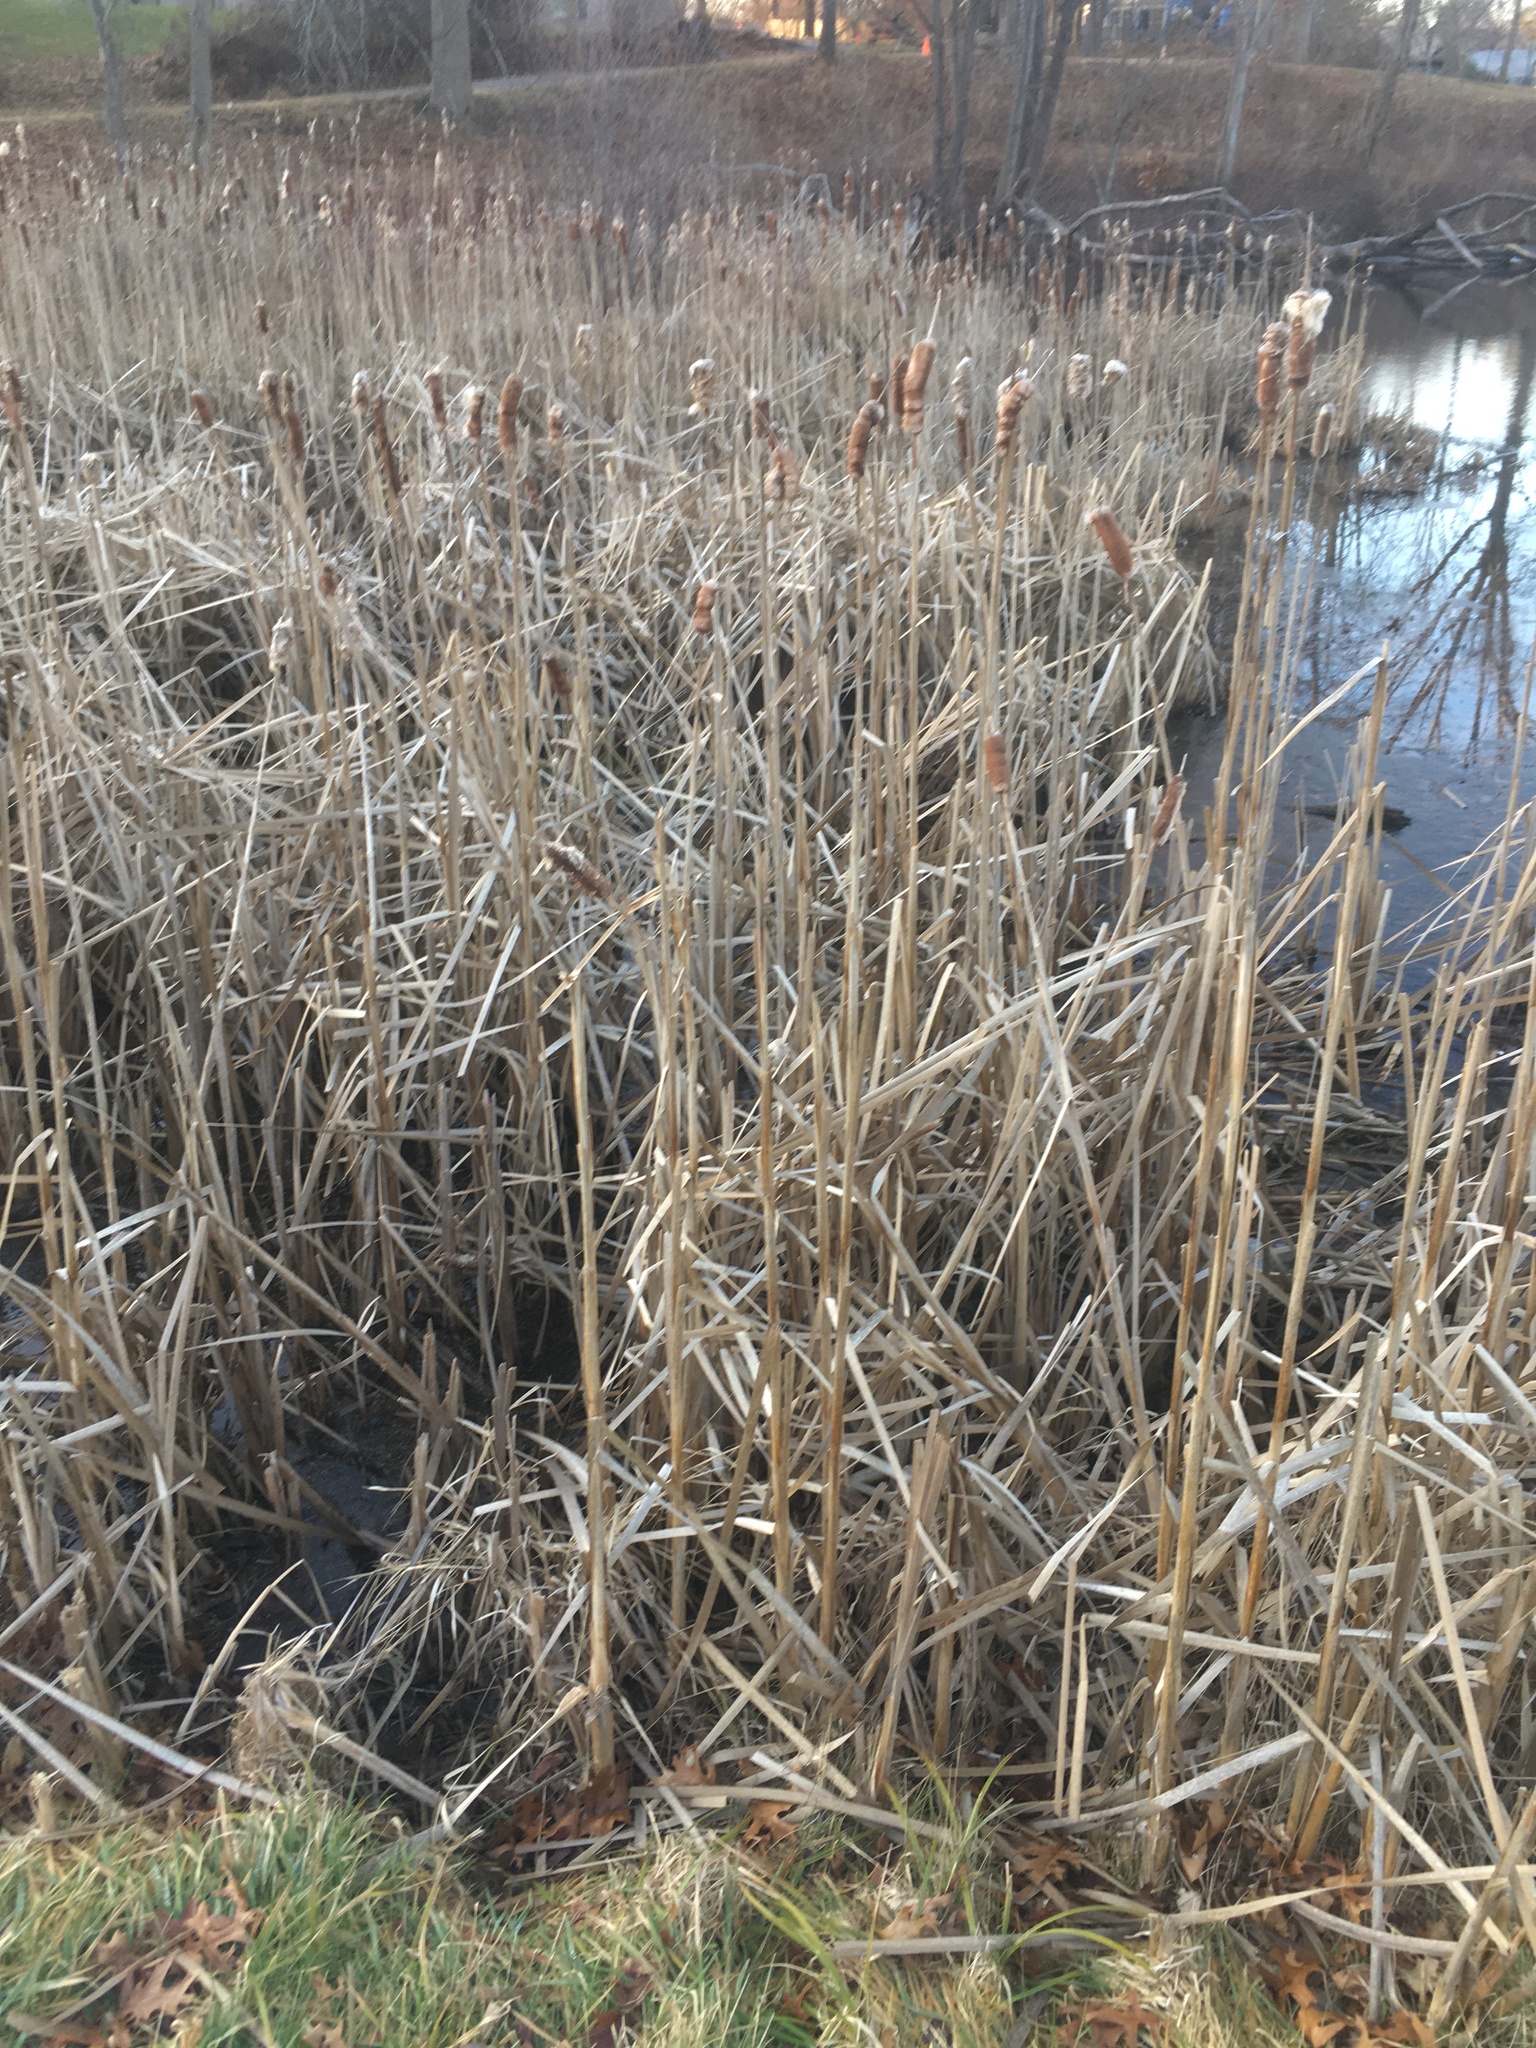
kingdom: Plantae
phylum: Tracheophyta
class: Liliopsida
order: Poales
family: Typhaceae
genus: Typha
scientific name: Typha latifolia
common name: Broadleaf cattail
